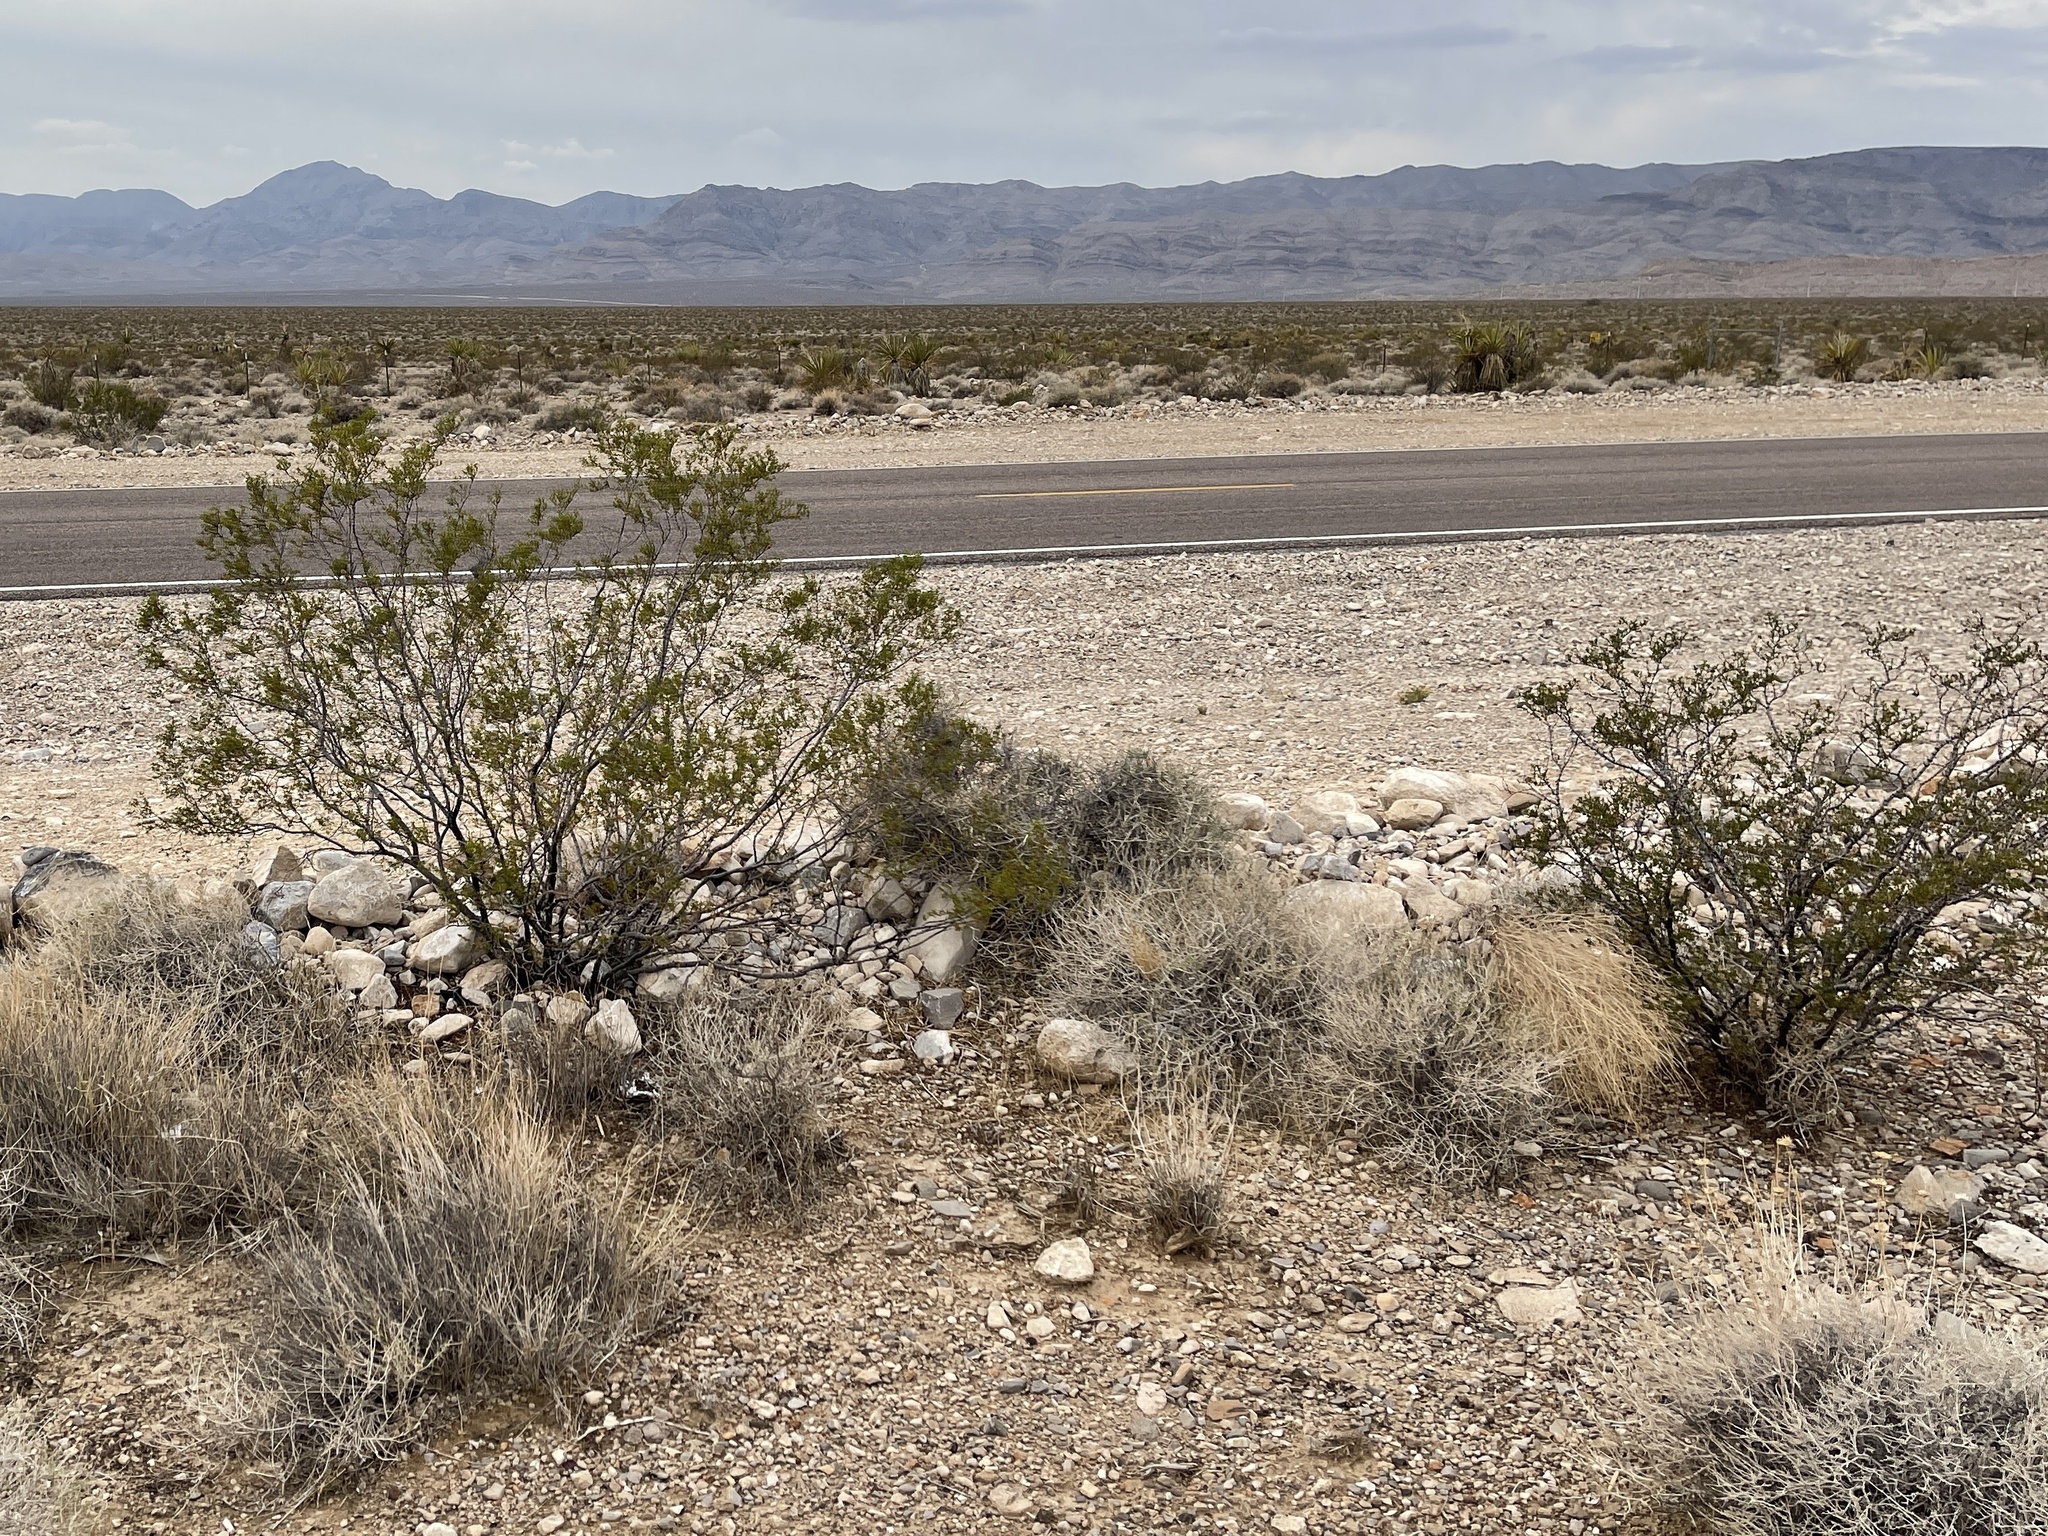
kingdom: Plantae
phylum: Tracheophyta
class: Magnoliopsida
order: Zygophyllales
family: Zygophyllaceae
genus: Larrea
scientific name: Larrea tridentata
